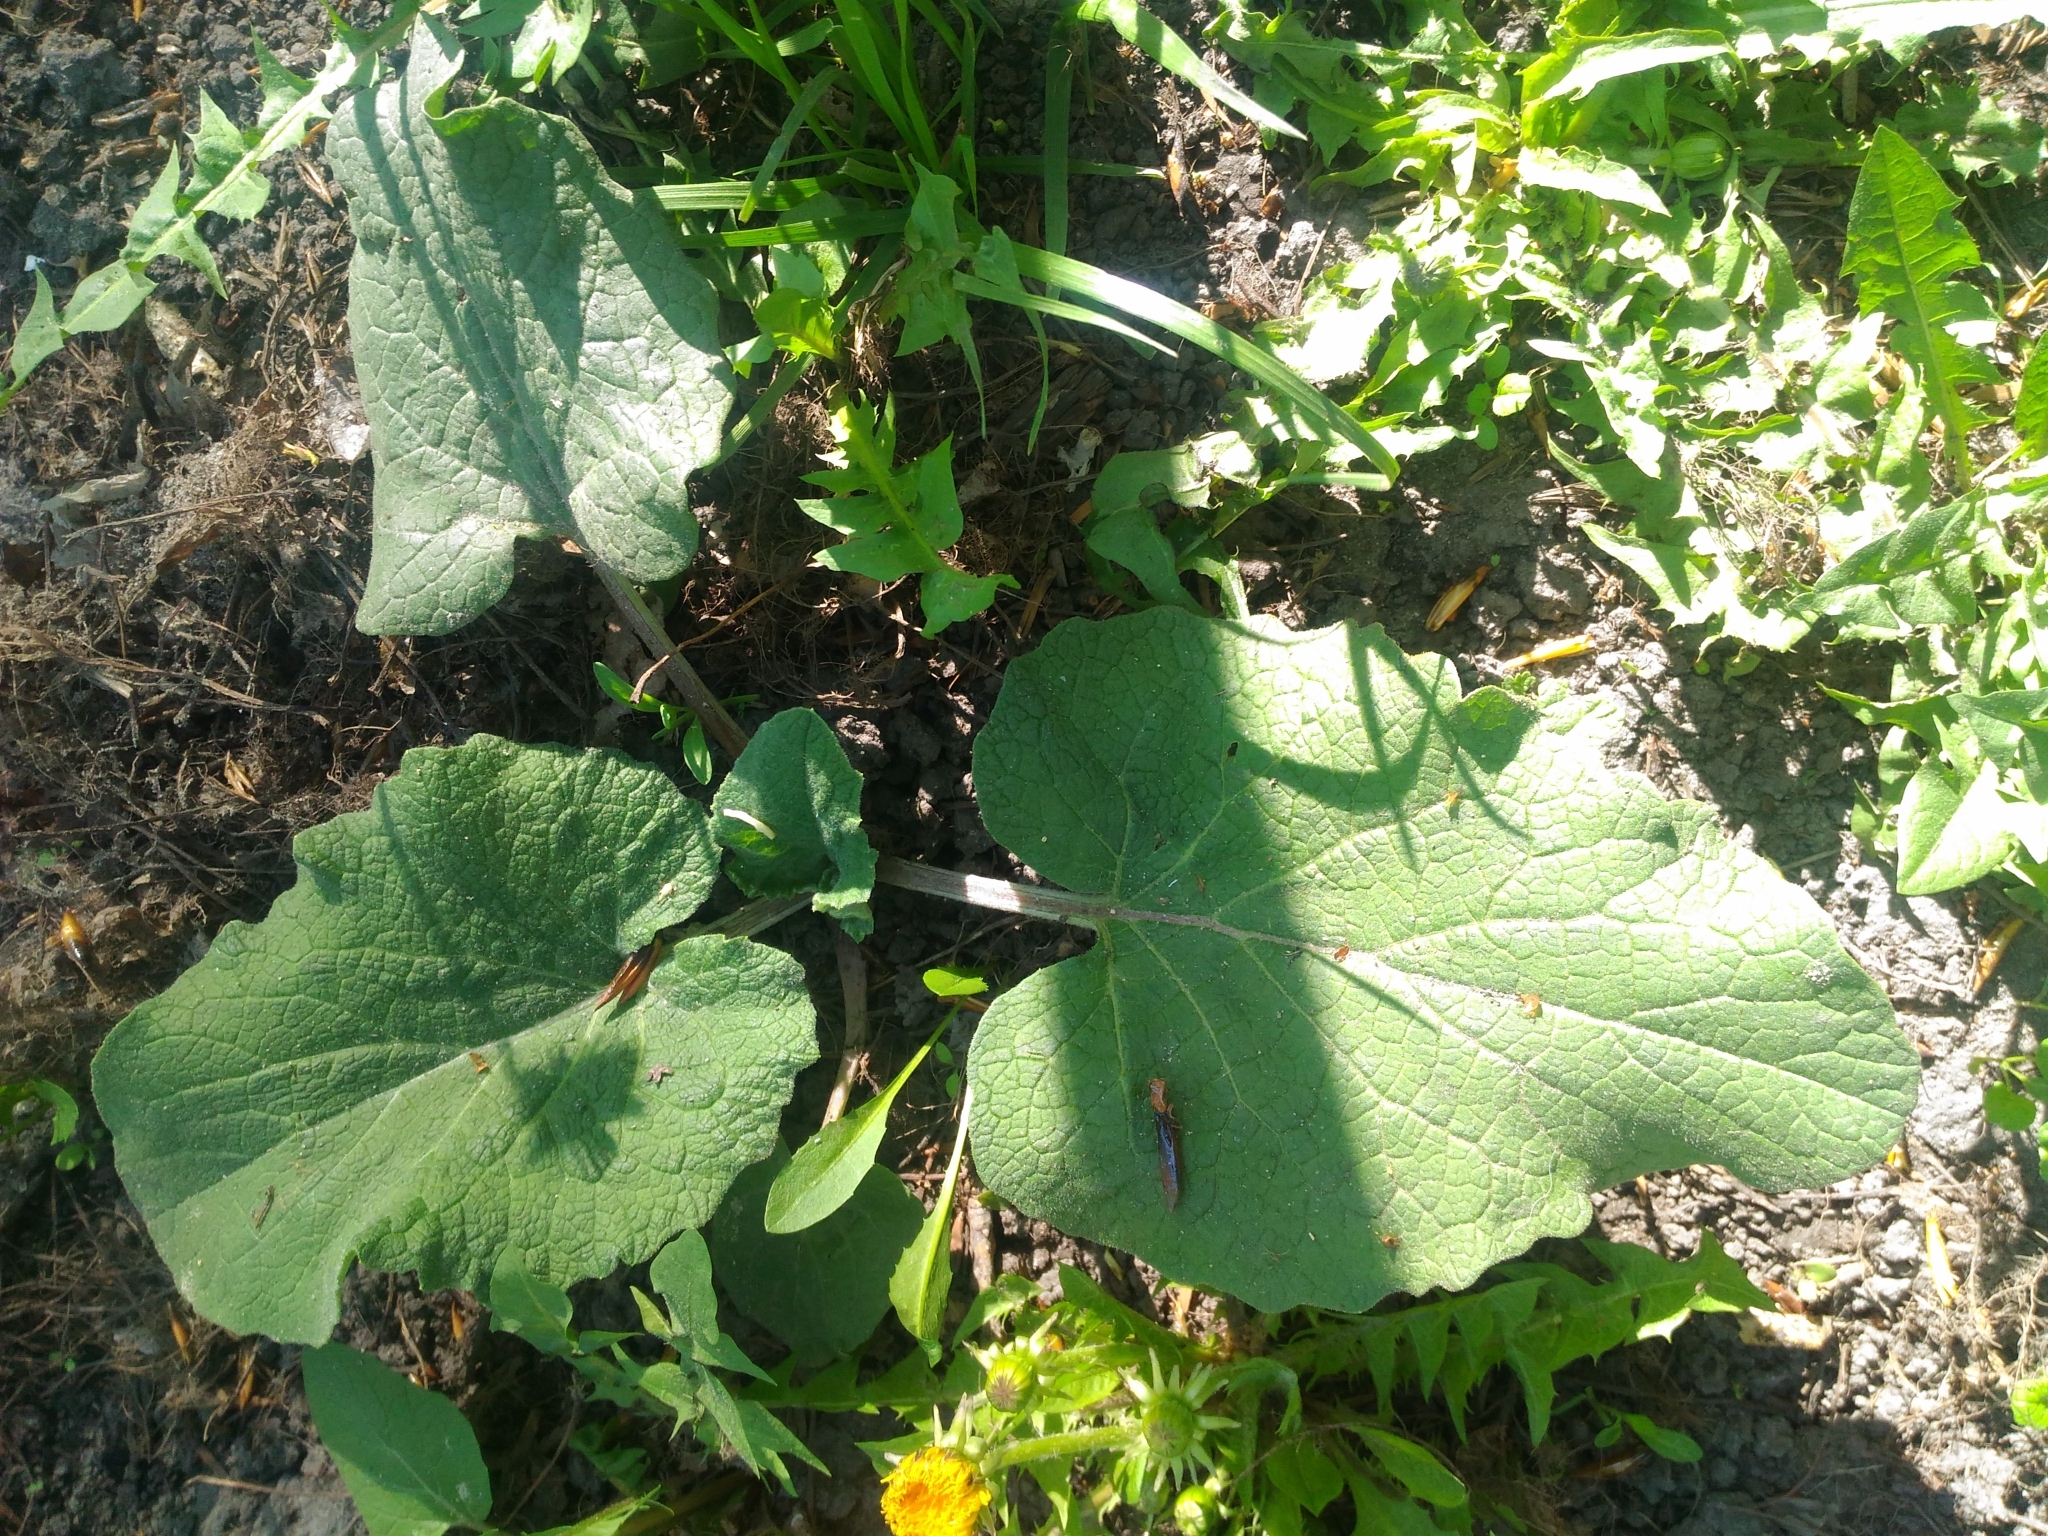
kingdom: Plantae
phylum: Tracheophyta
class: Magnoliopsida
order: Asterales
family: Asteraceae
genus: Arctium
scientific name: Arctium
